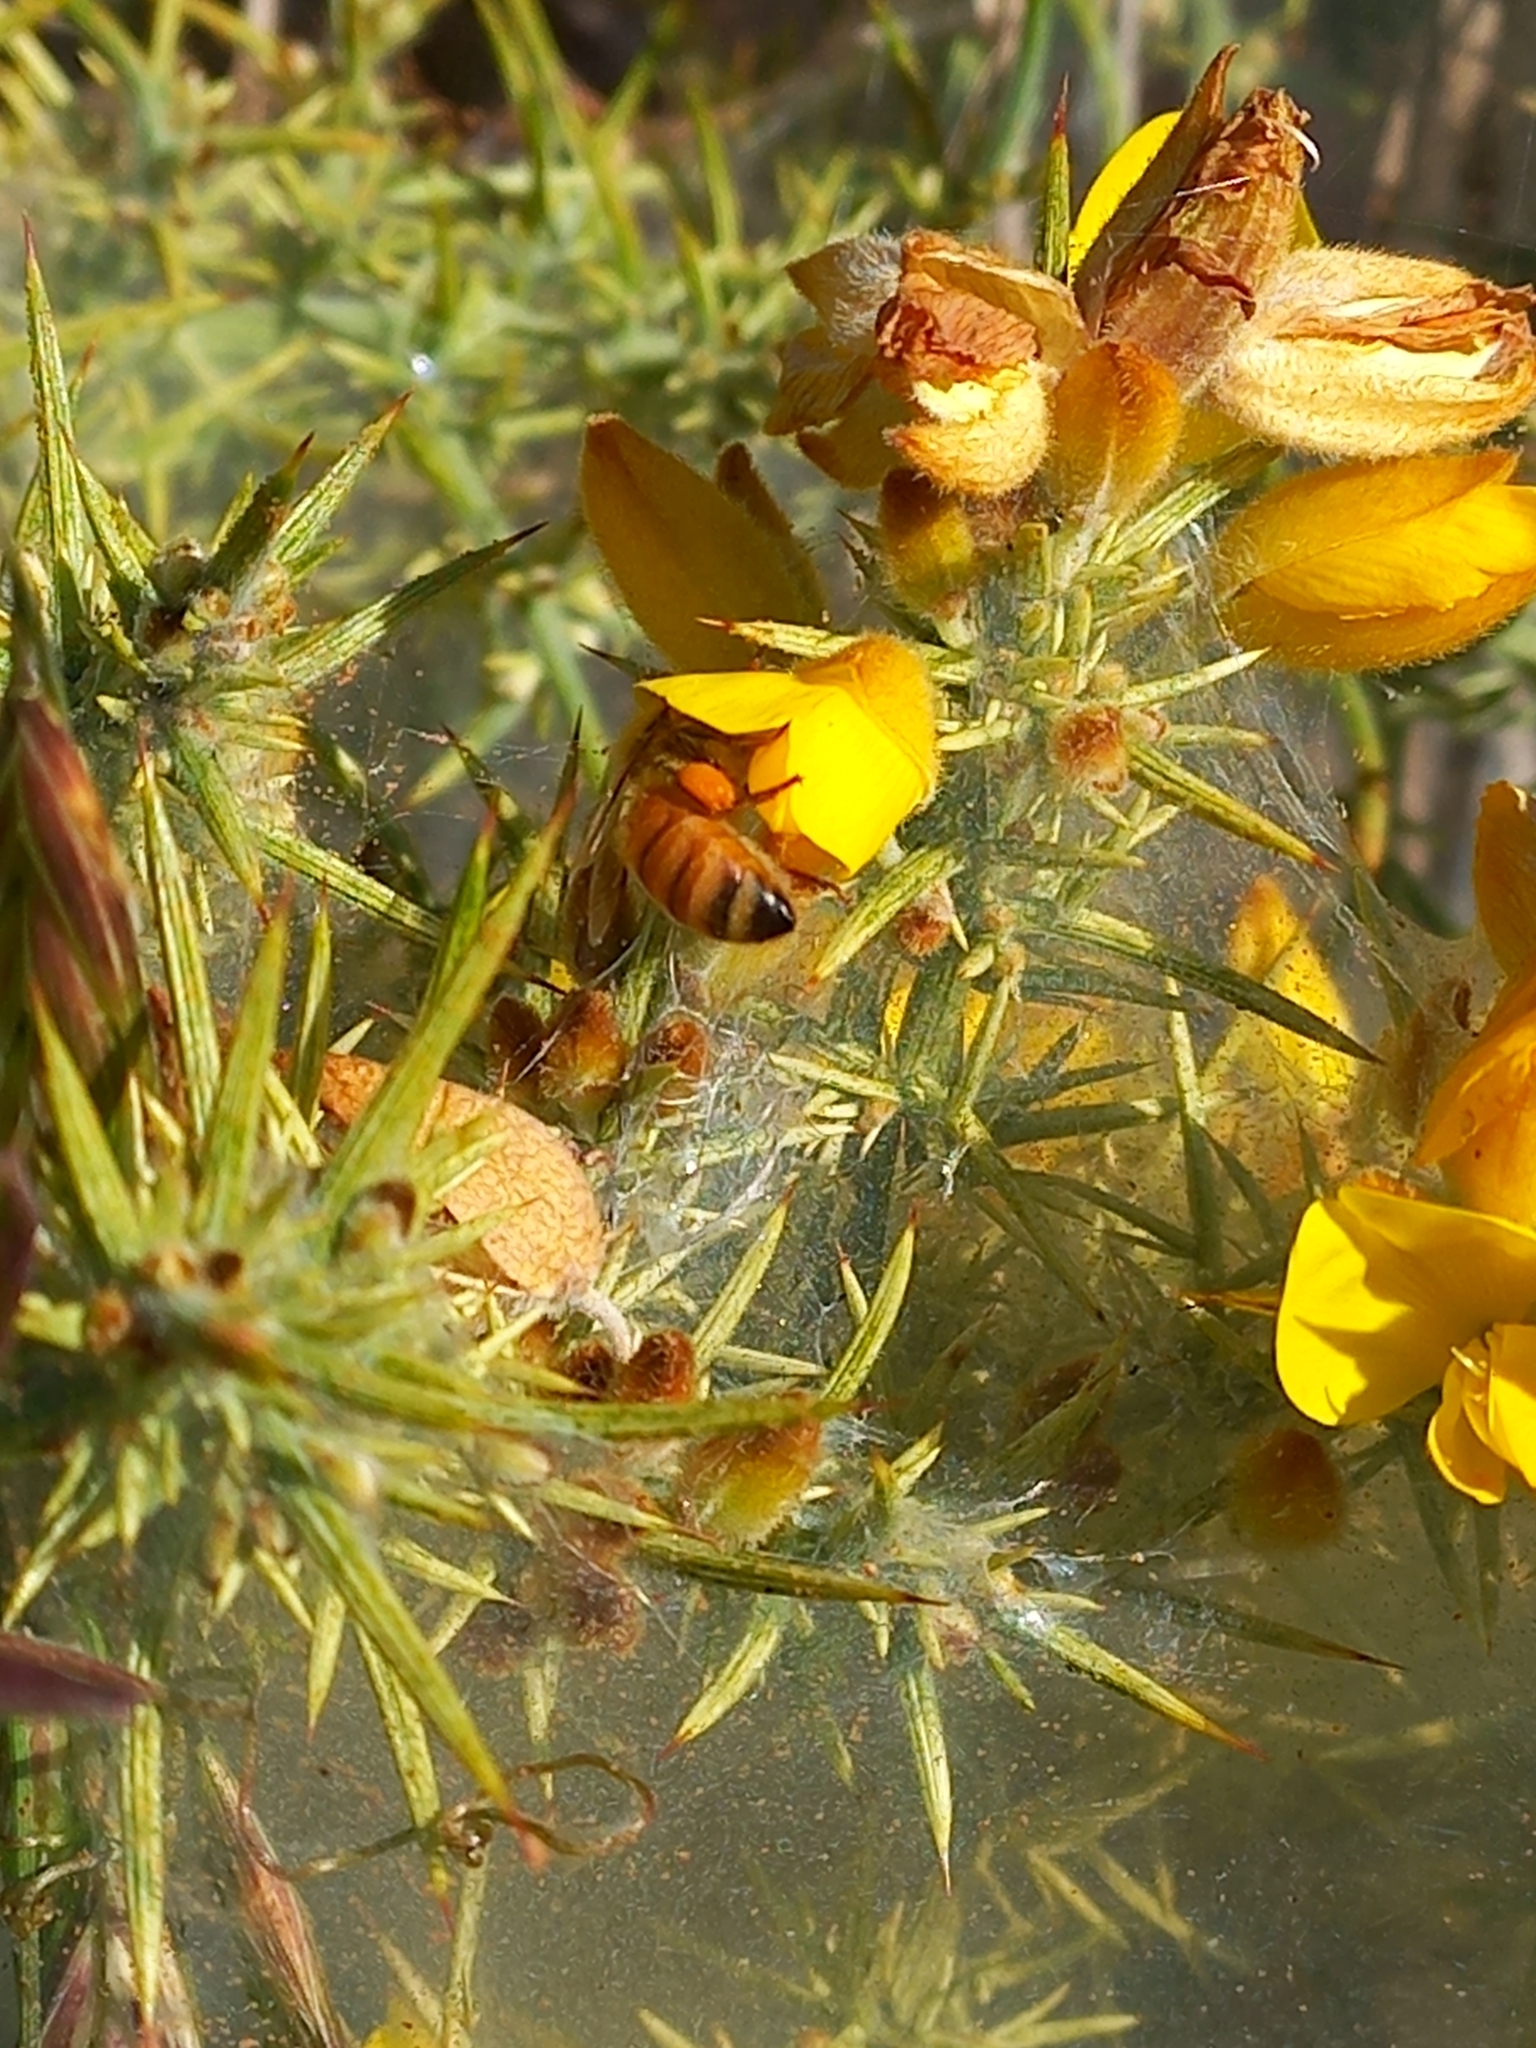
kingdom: Animalia
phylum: Arthropoda
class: Insecta
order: Hymenoptera
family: Apidae
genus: Apis
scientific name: Apis mellifera
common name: Honey bee
